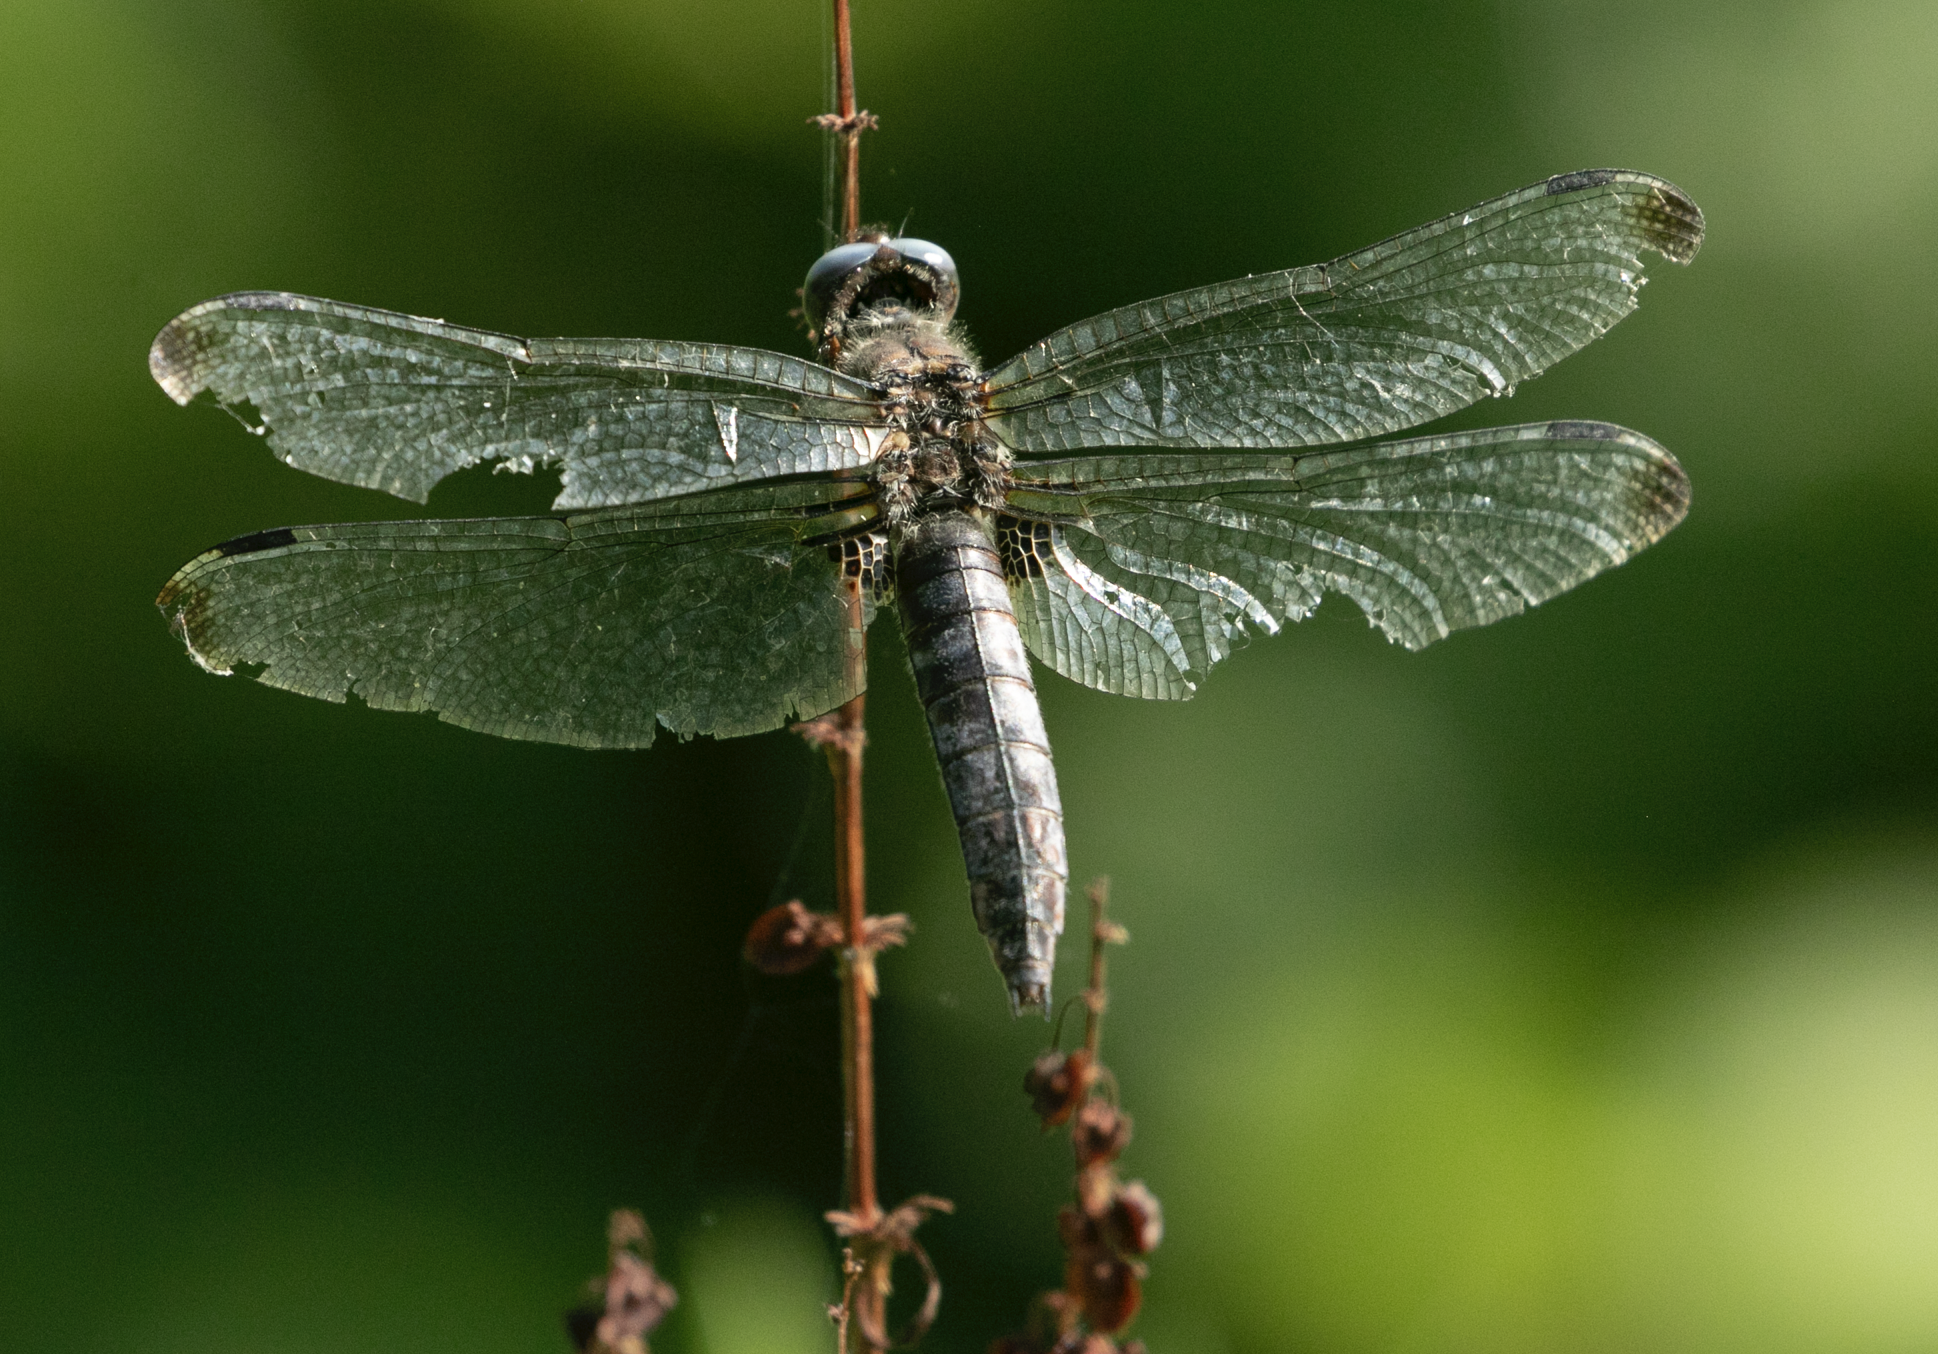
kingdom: Animalia
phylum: Arthropoda
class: Insecta
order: Odonata
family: Libellulidae
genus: Libellula
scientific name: Libellula fulva
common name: Blue chaser
